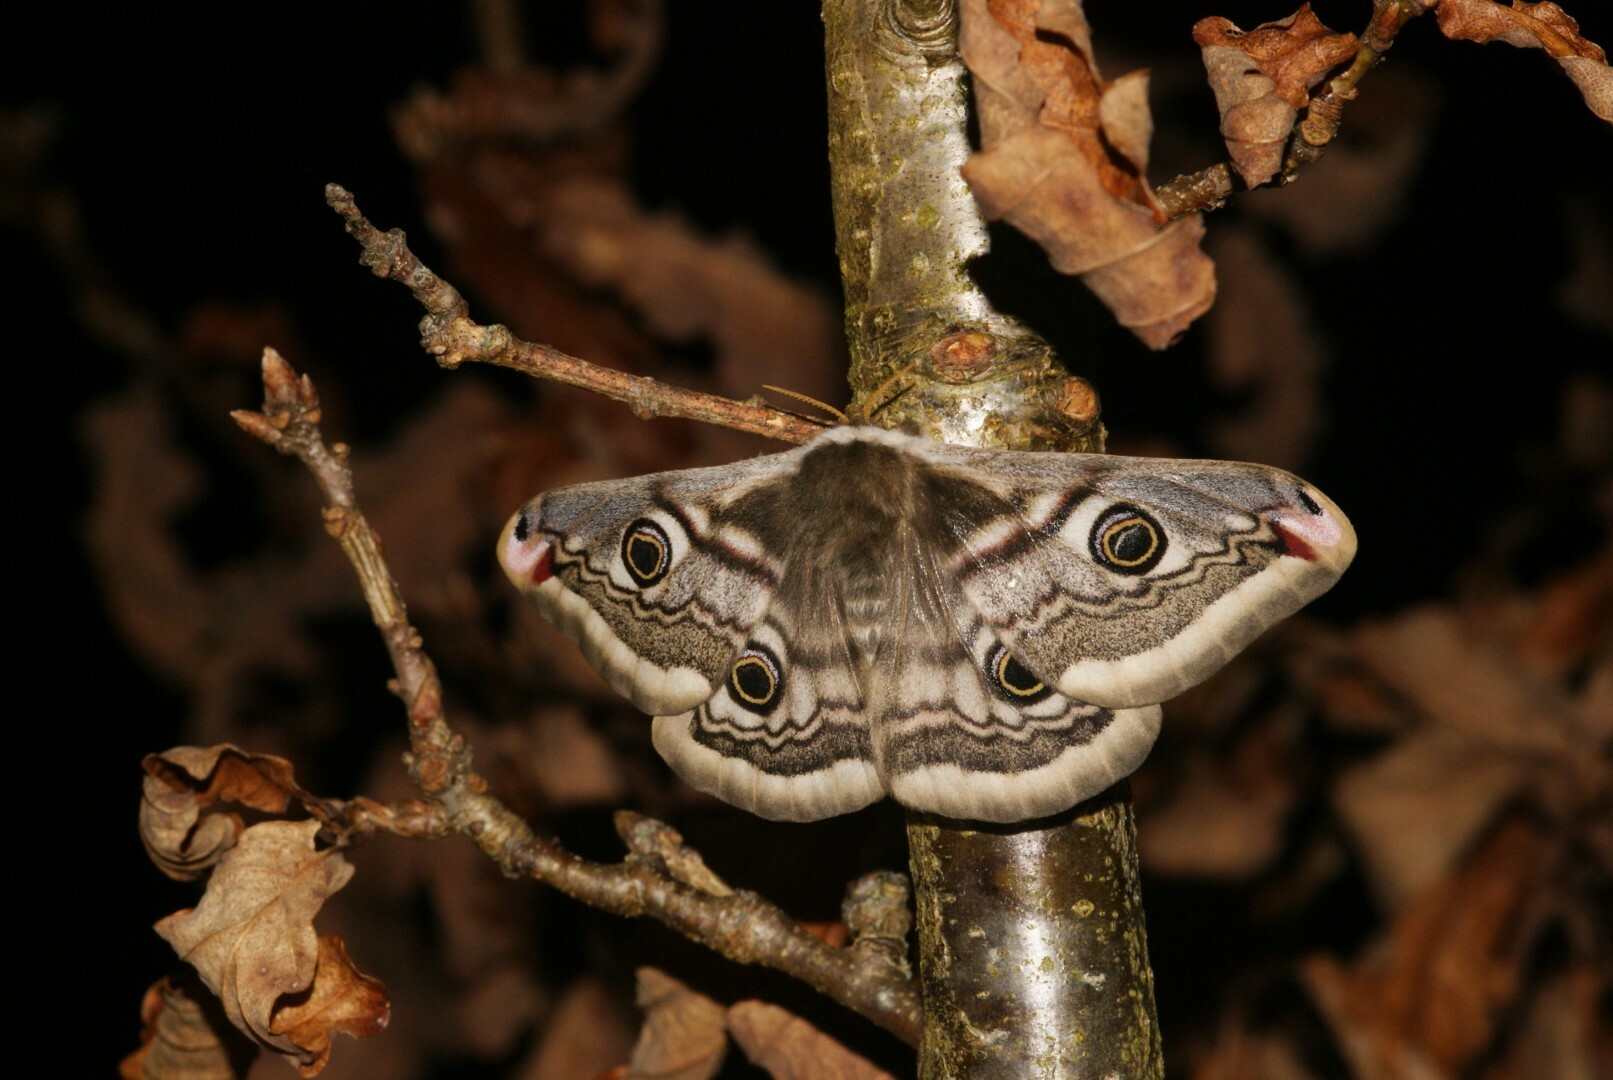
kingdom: Animalia
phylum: Arthropoda
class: Insecta
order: Lepidoptera
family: Saturniidae
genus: Saturnia
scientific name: Saturnia pavonia
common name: Emperor moth
